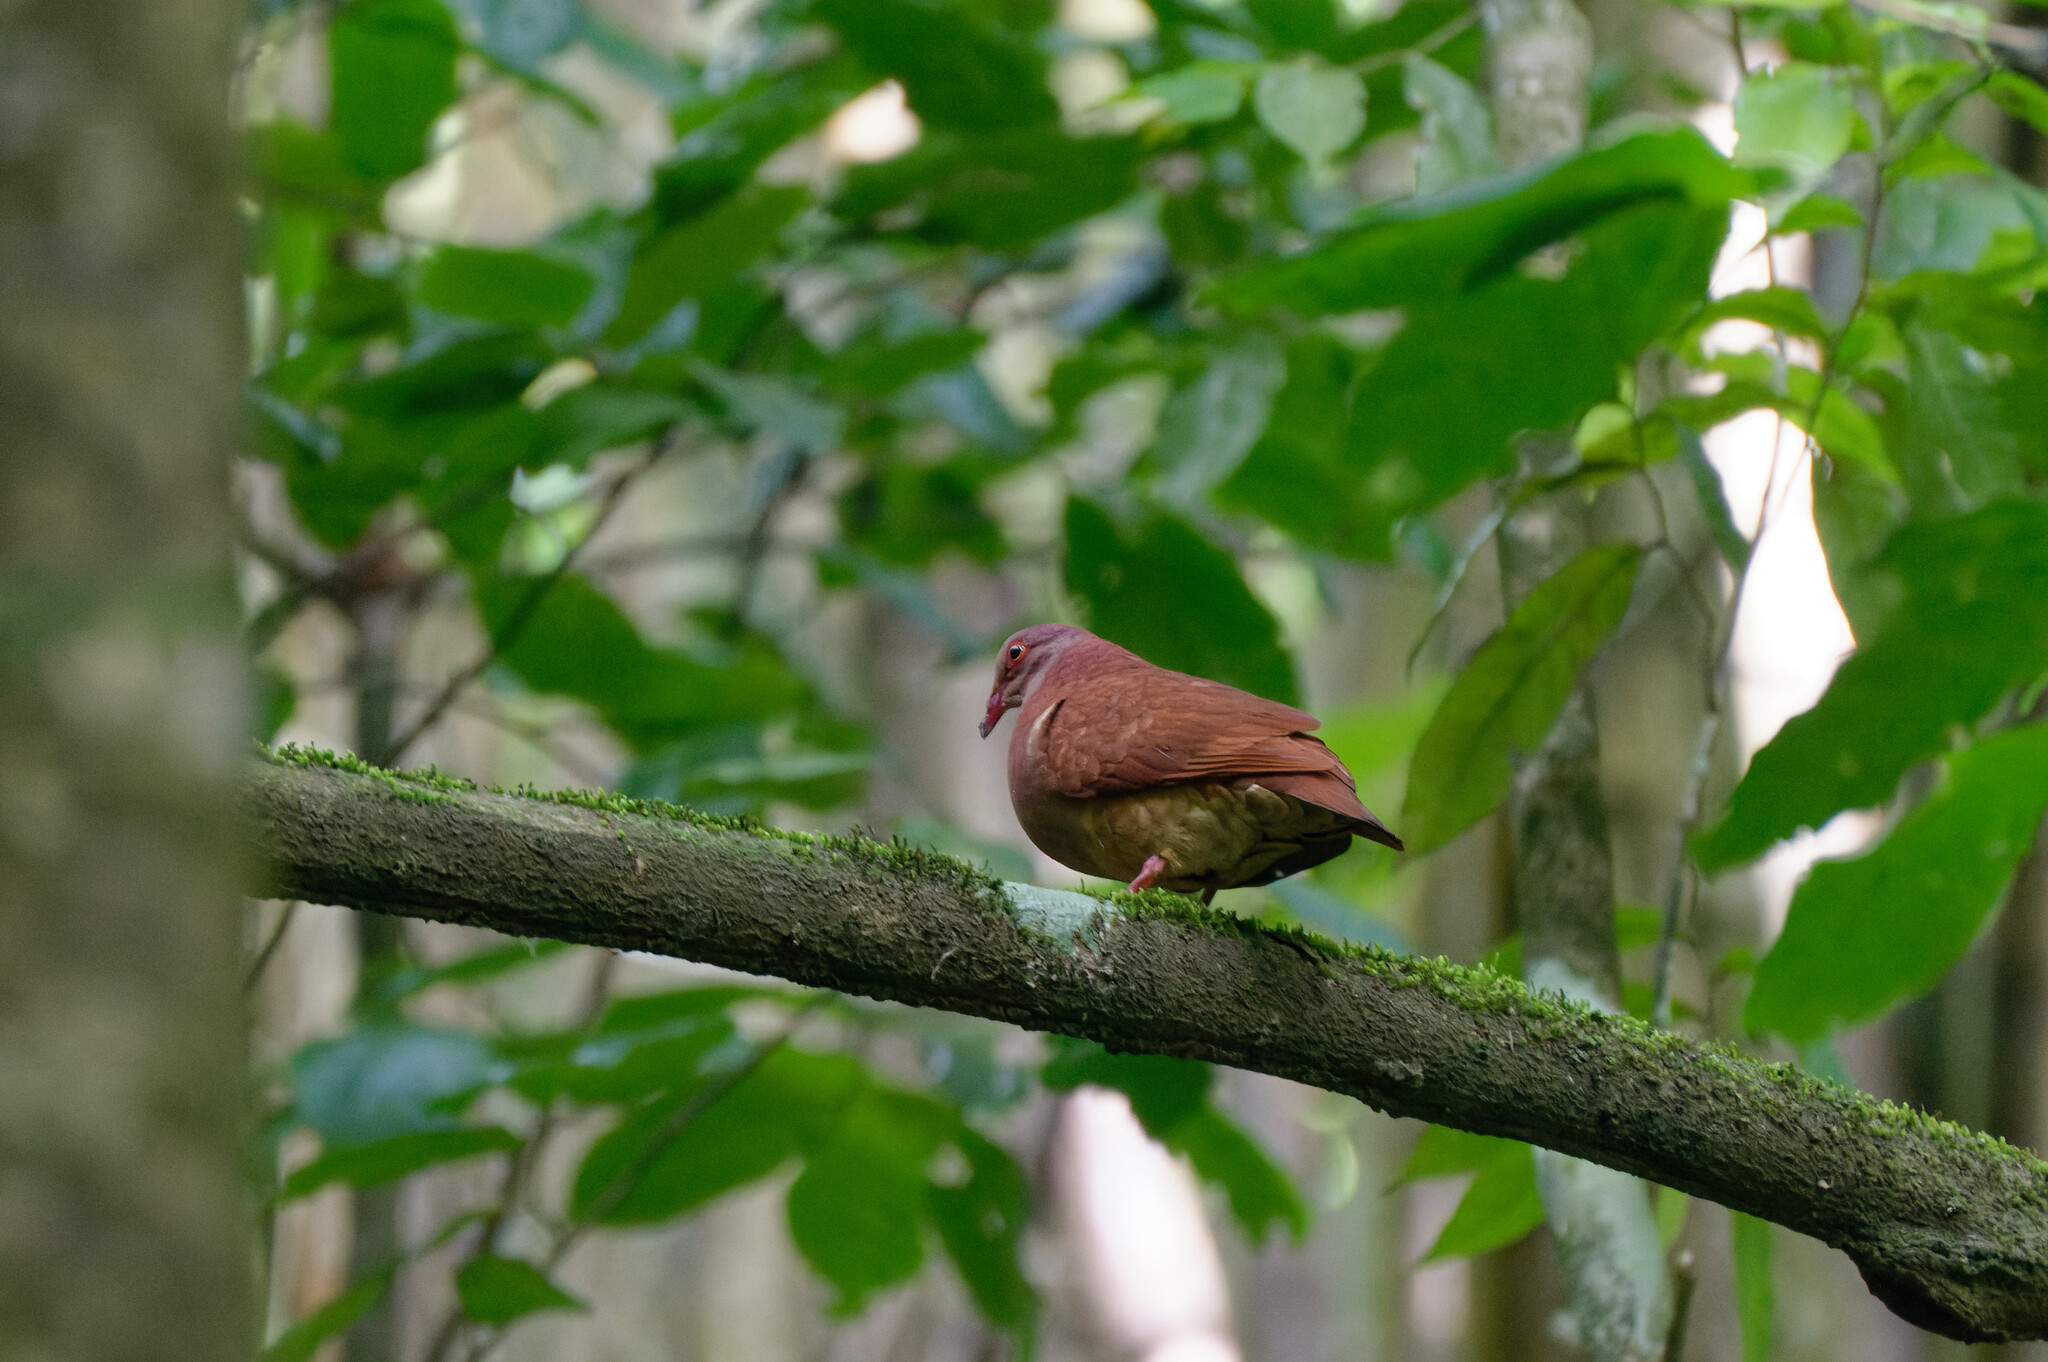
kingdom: Animalia
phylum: Chordata
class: Aves
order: Columbiformes
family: Columbidae
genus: Geotrygon
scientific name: Geotrygon montana
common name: Ruddy quail-dove
